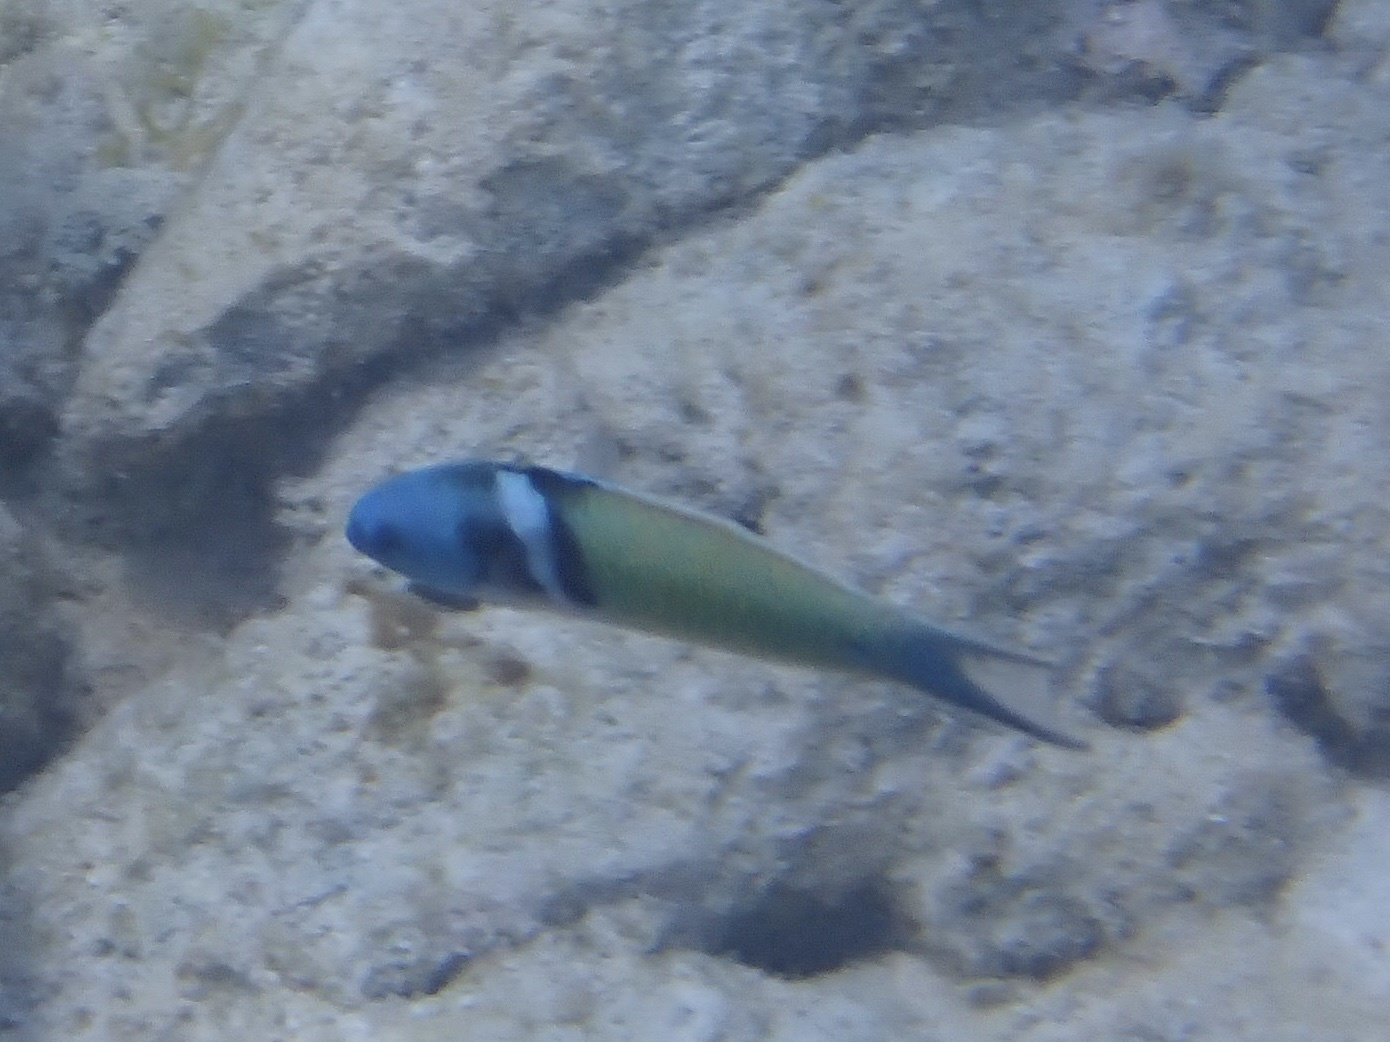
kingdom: Animalia
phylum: Chordata
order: Perciformes
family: Labridae
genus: Thalassoma
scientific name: Thalassoma bifasciatum
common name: Bluehead wrasse
